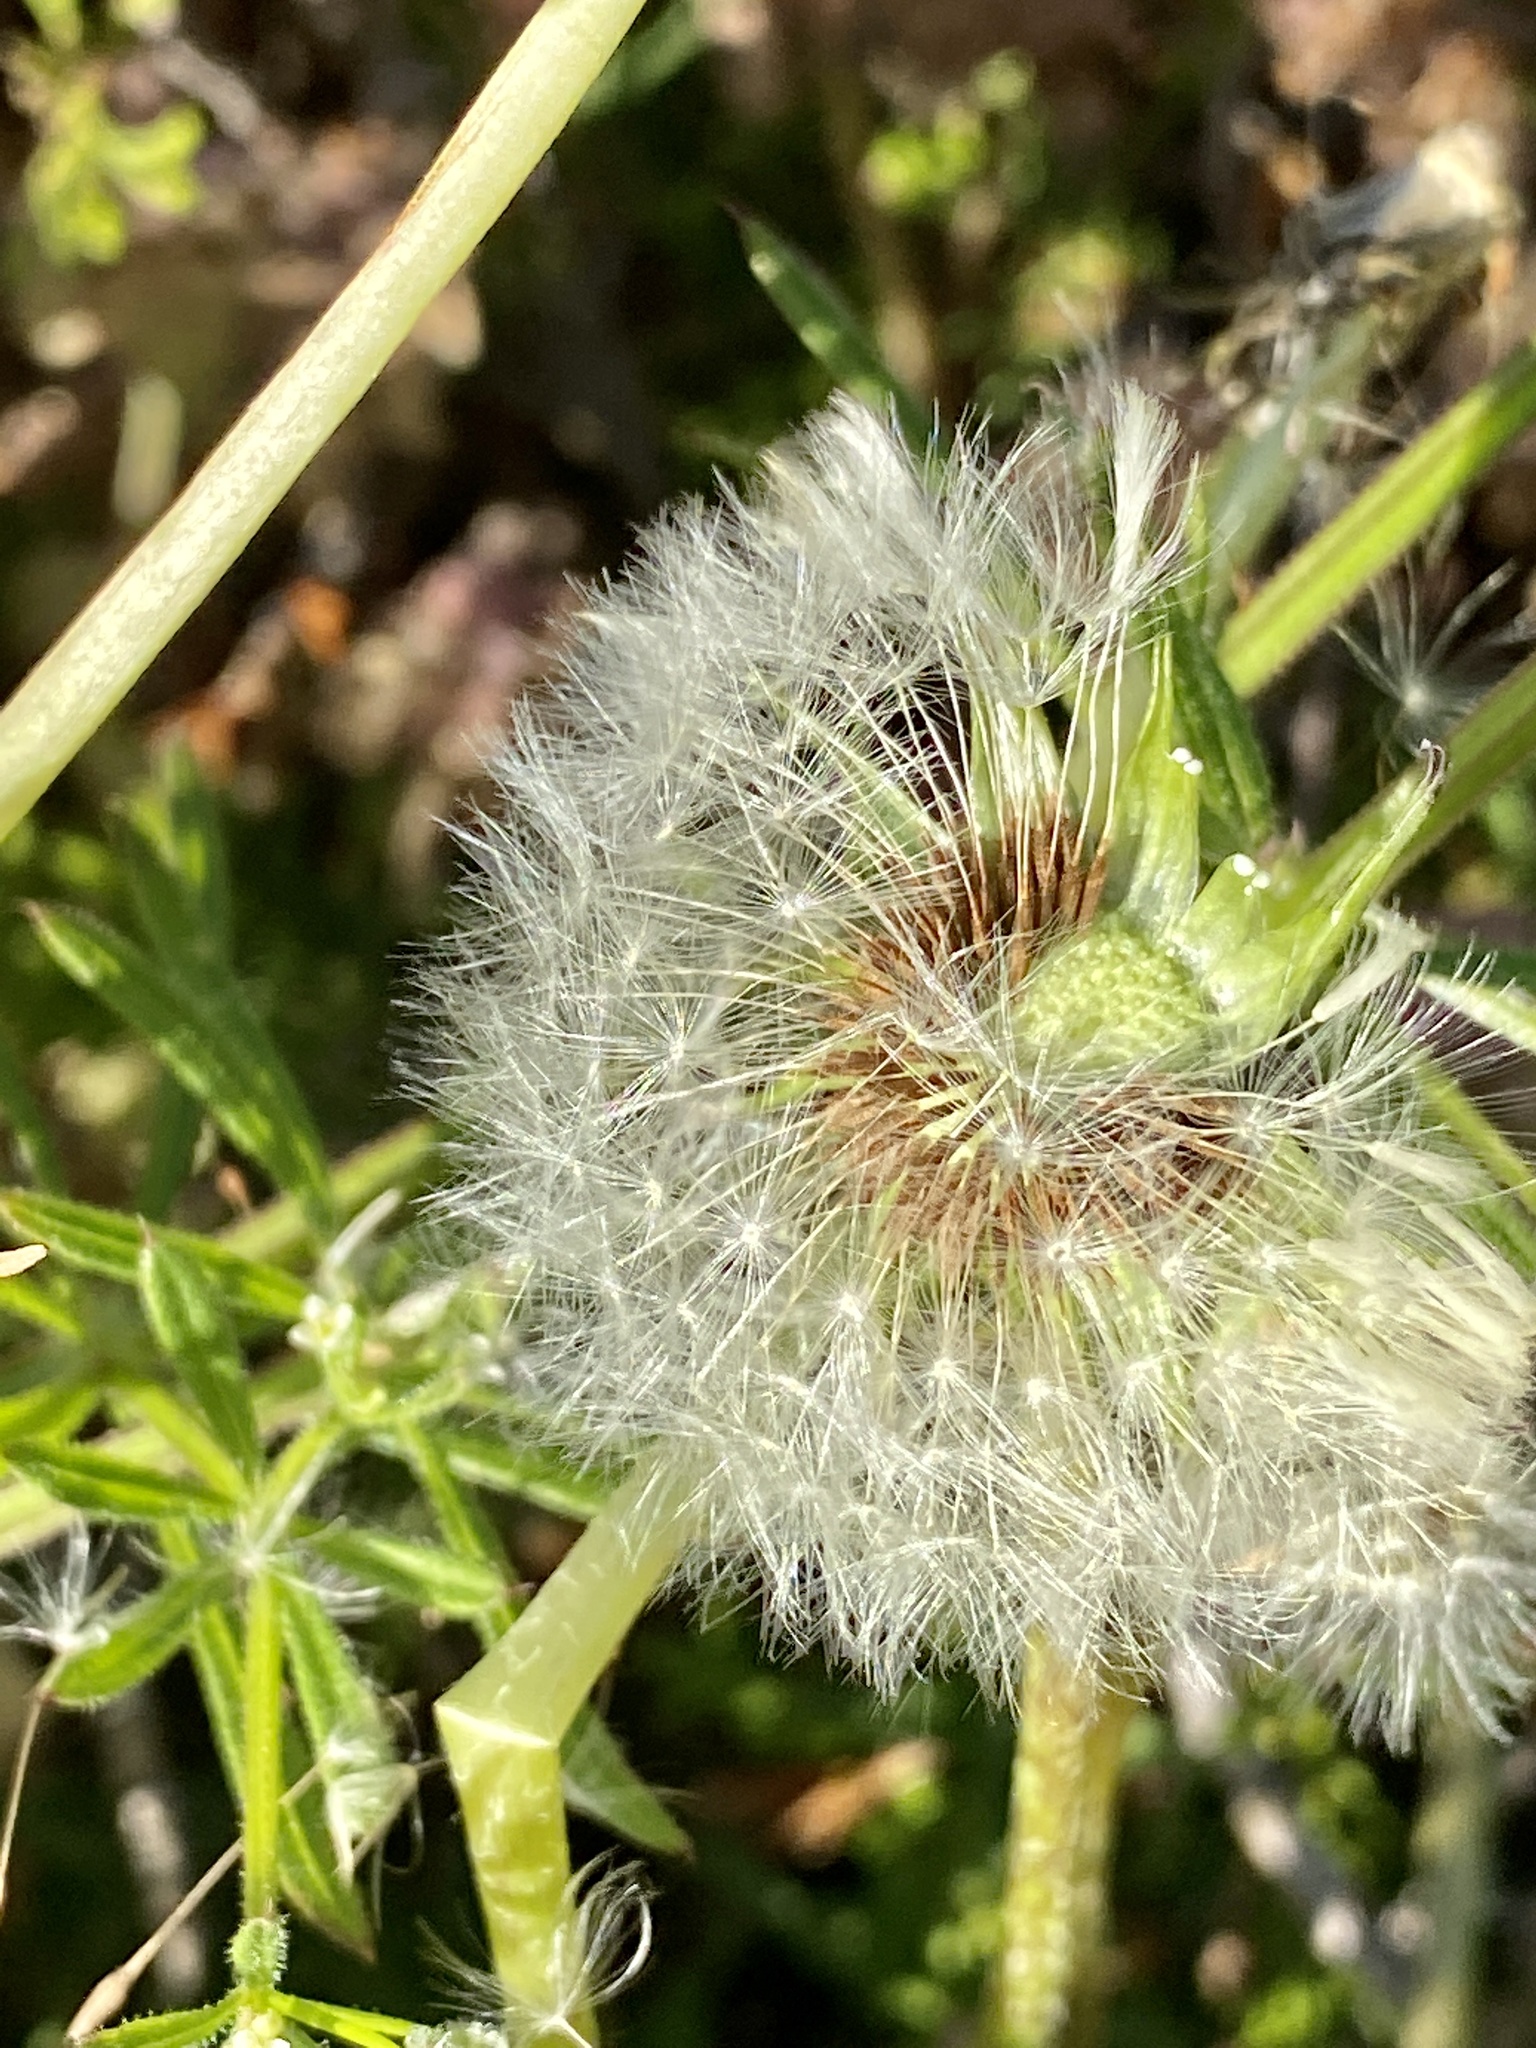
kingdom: Plantae
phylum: Tracheophyta
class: Magnoliopsida
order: Asterales
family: Asteraceae
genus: Taraxacum
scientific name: Taraxacum officinale
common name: Common dandelion
